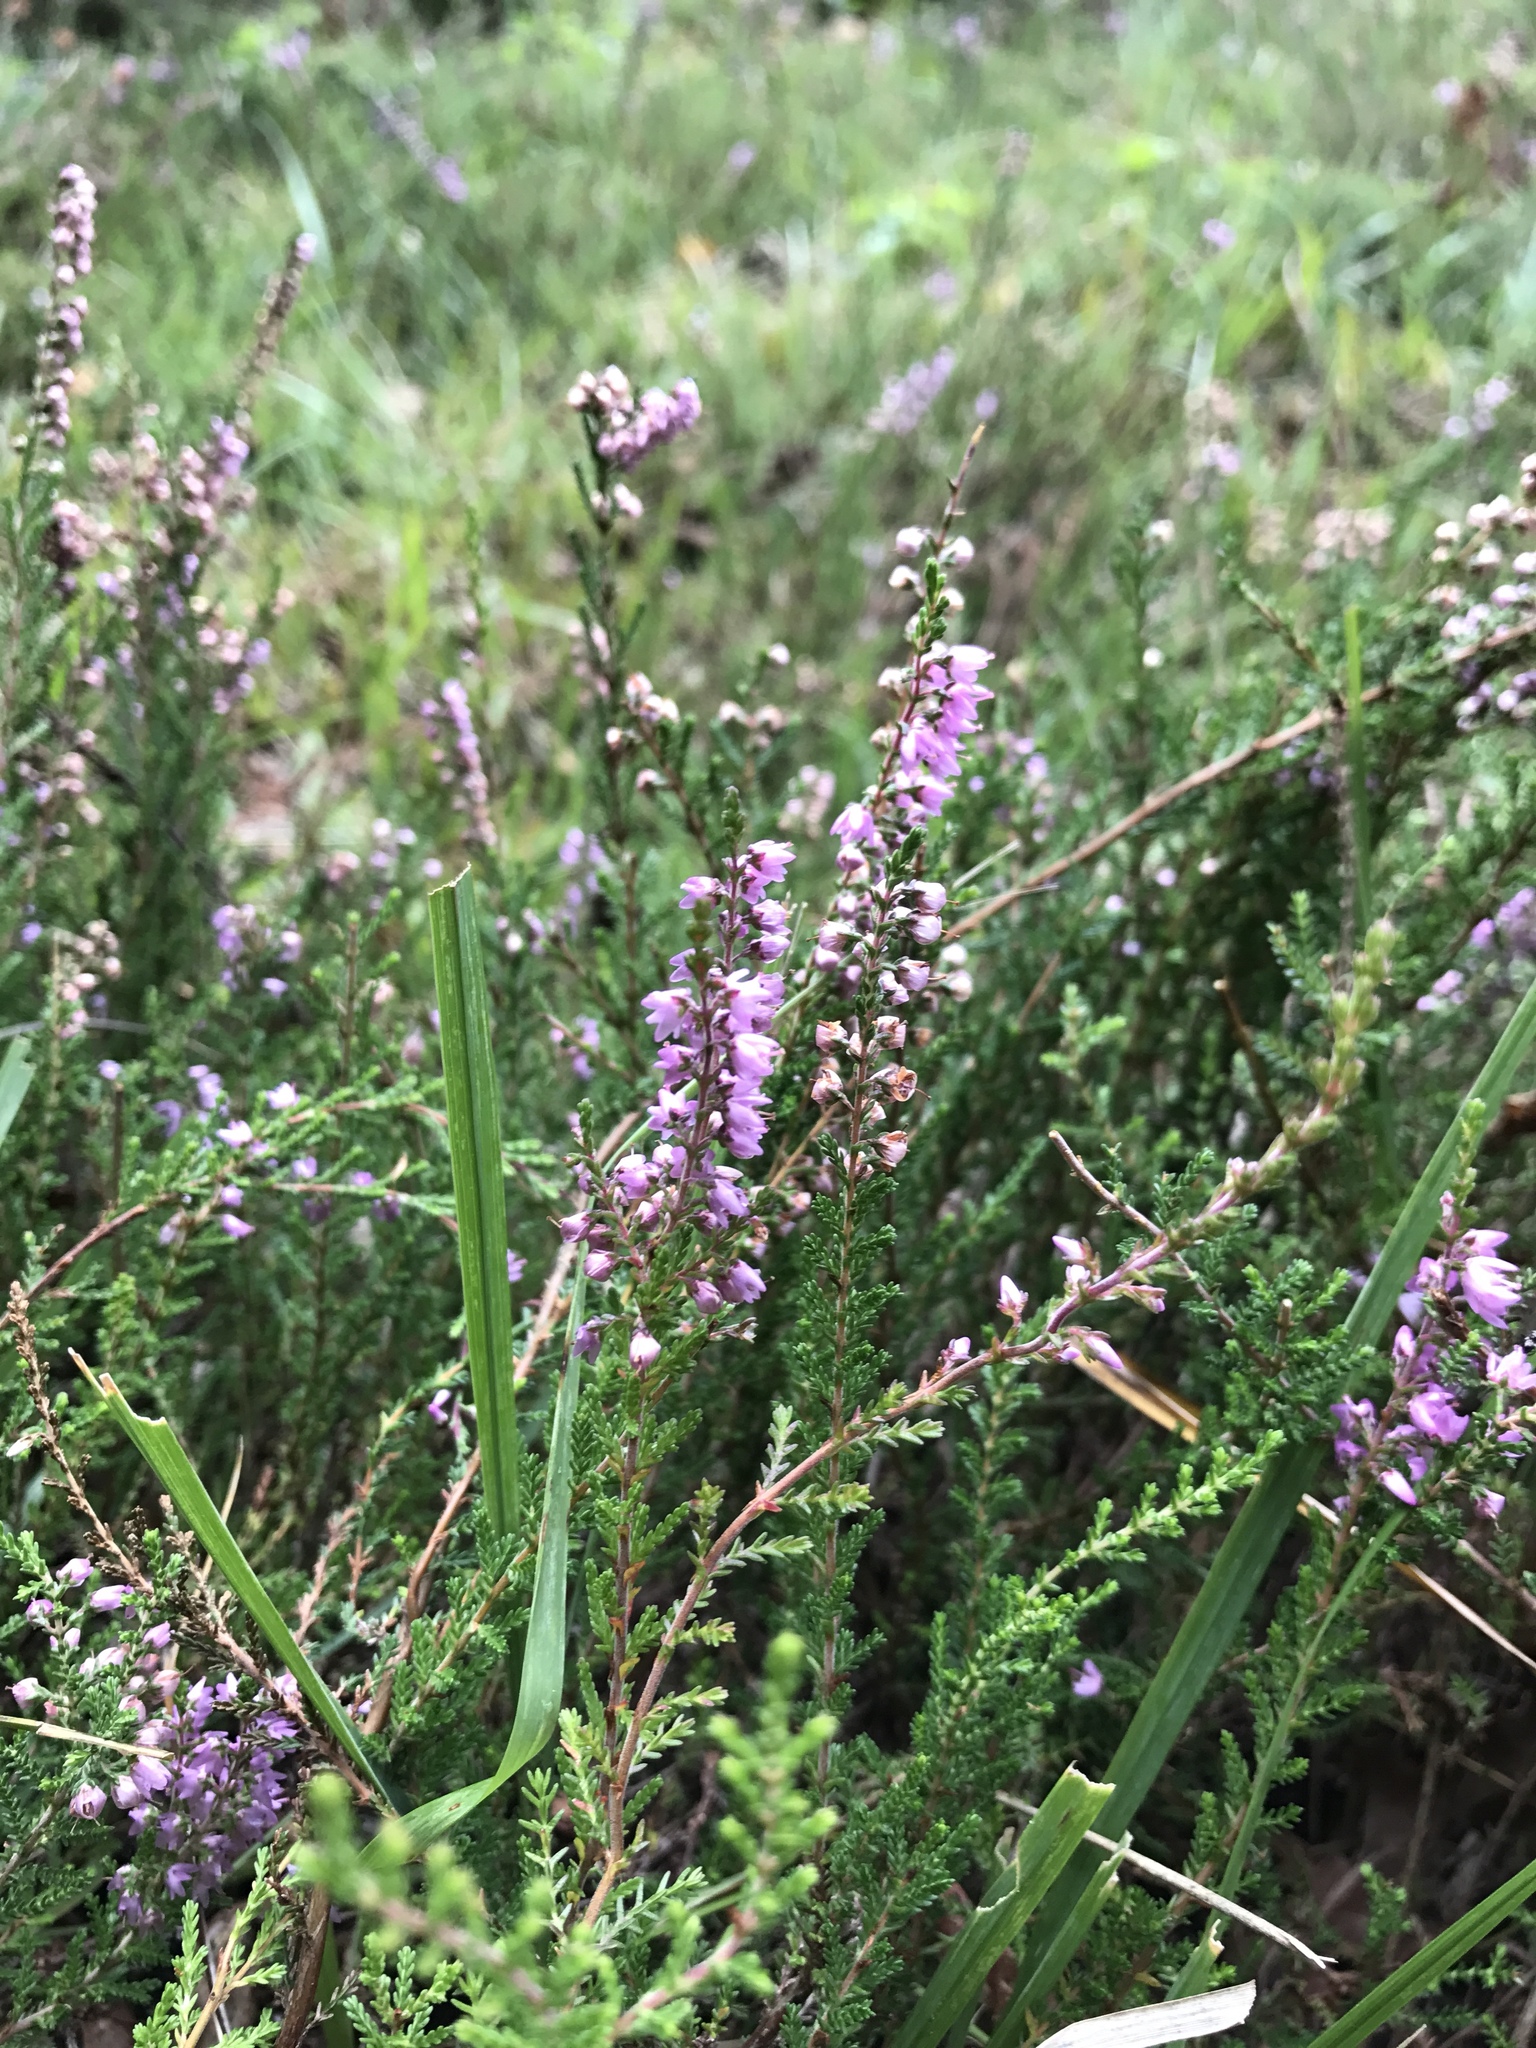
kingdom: Plantae
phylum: Tracheophyta
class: Magnoliopsida
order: Ericales
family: Ericaceae
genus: Calluna
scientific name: Calluna vulgaris
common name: Heather
